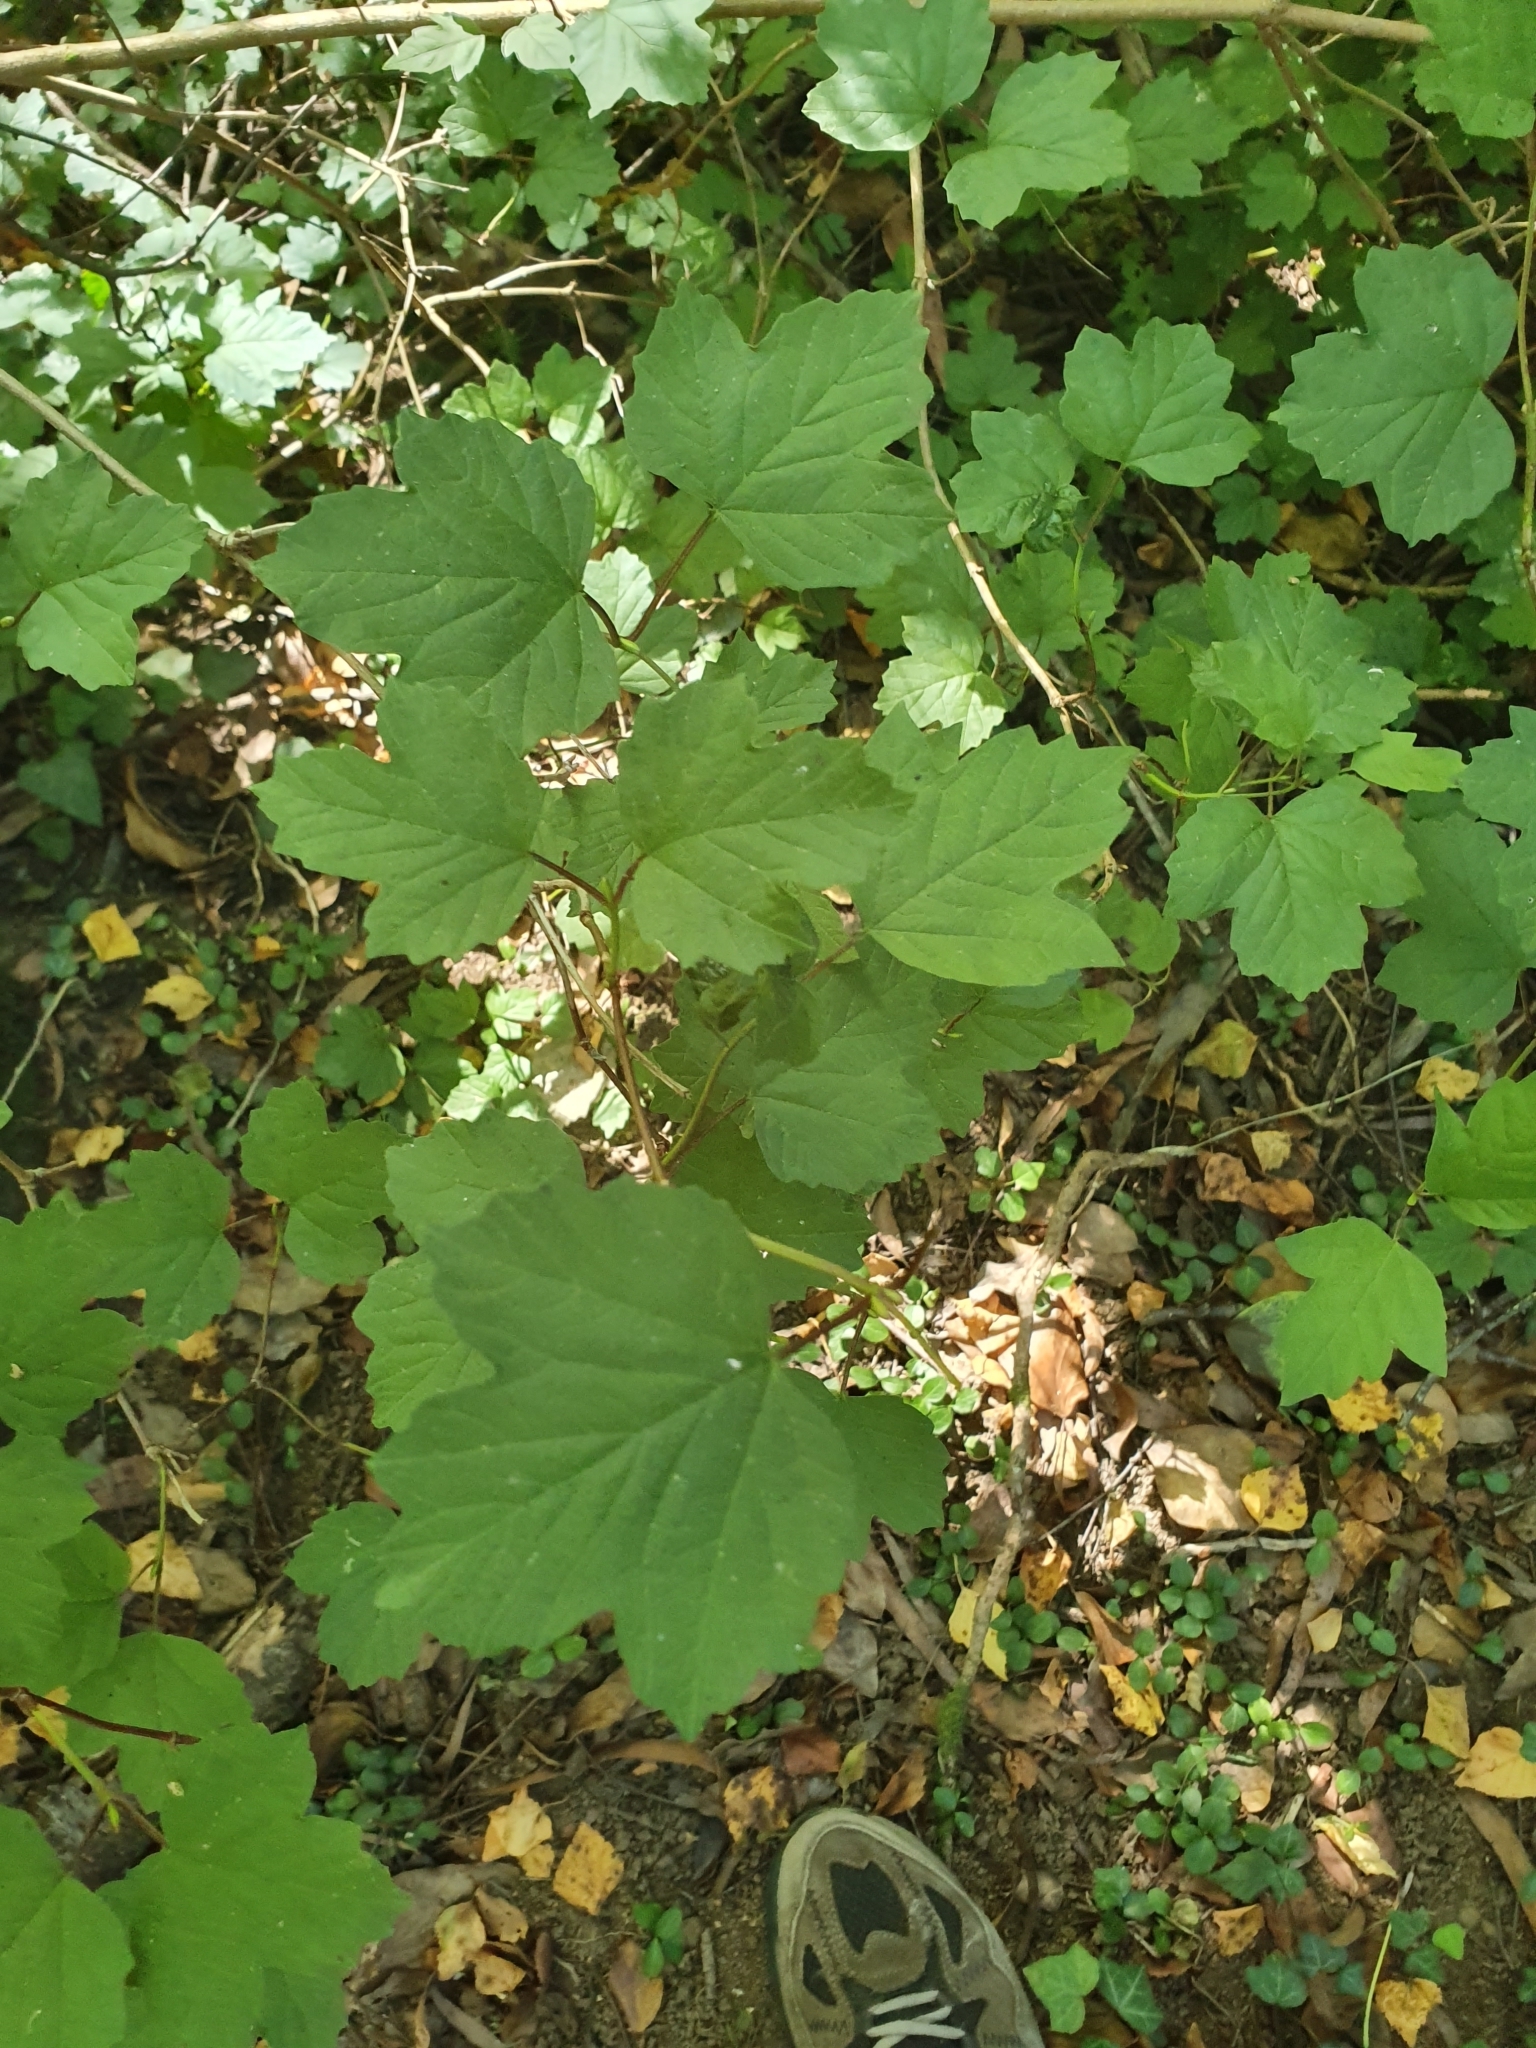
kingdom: Plantae
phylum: Tracheophyta
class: Magnoliopsida
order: Dipsacales
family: Viburnaceae
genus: Viburnum
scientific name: Viburnum opulus
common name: Guelder-rose
